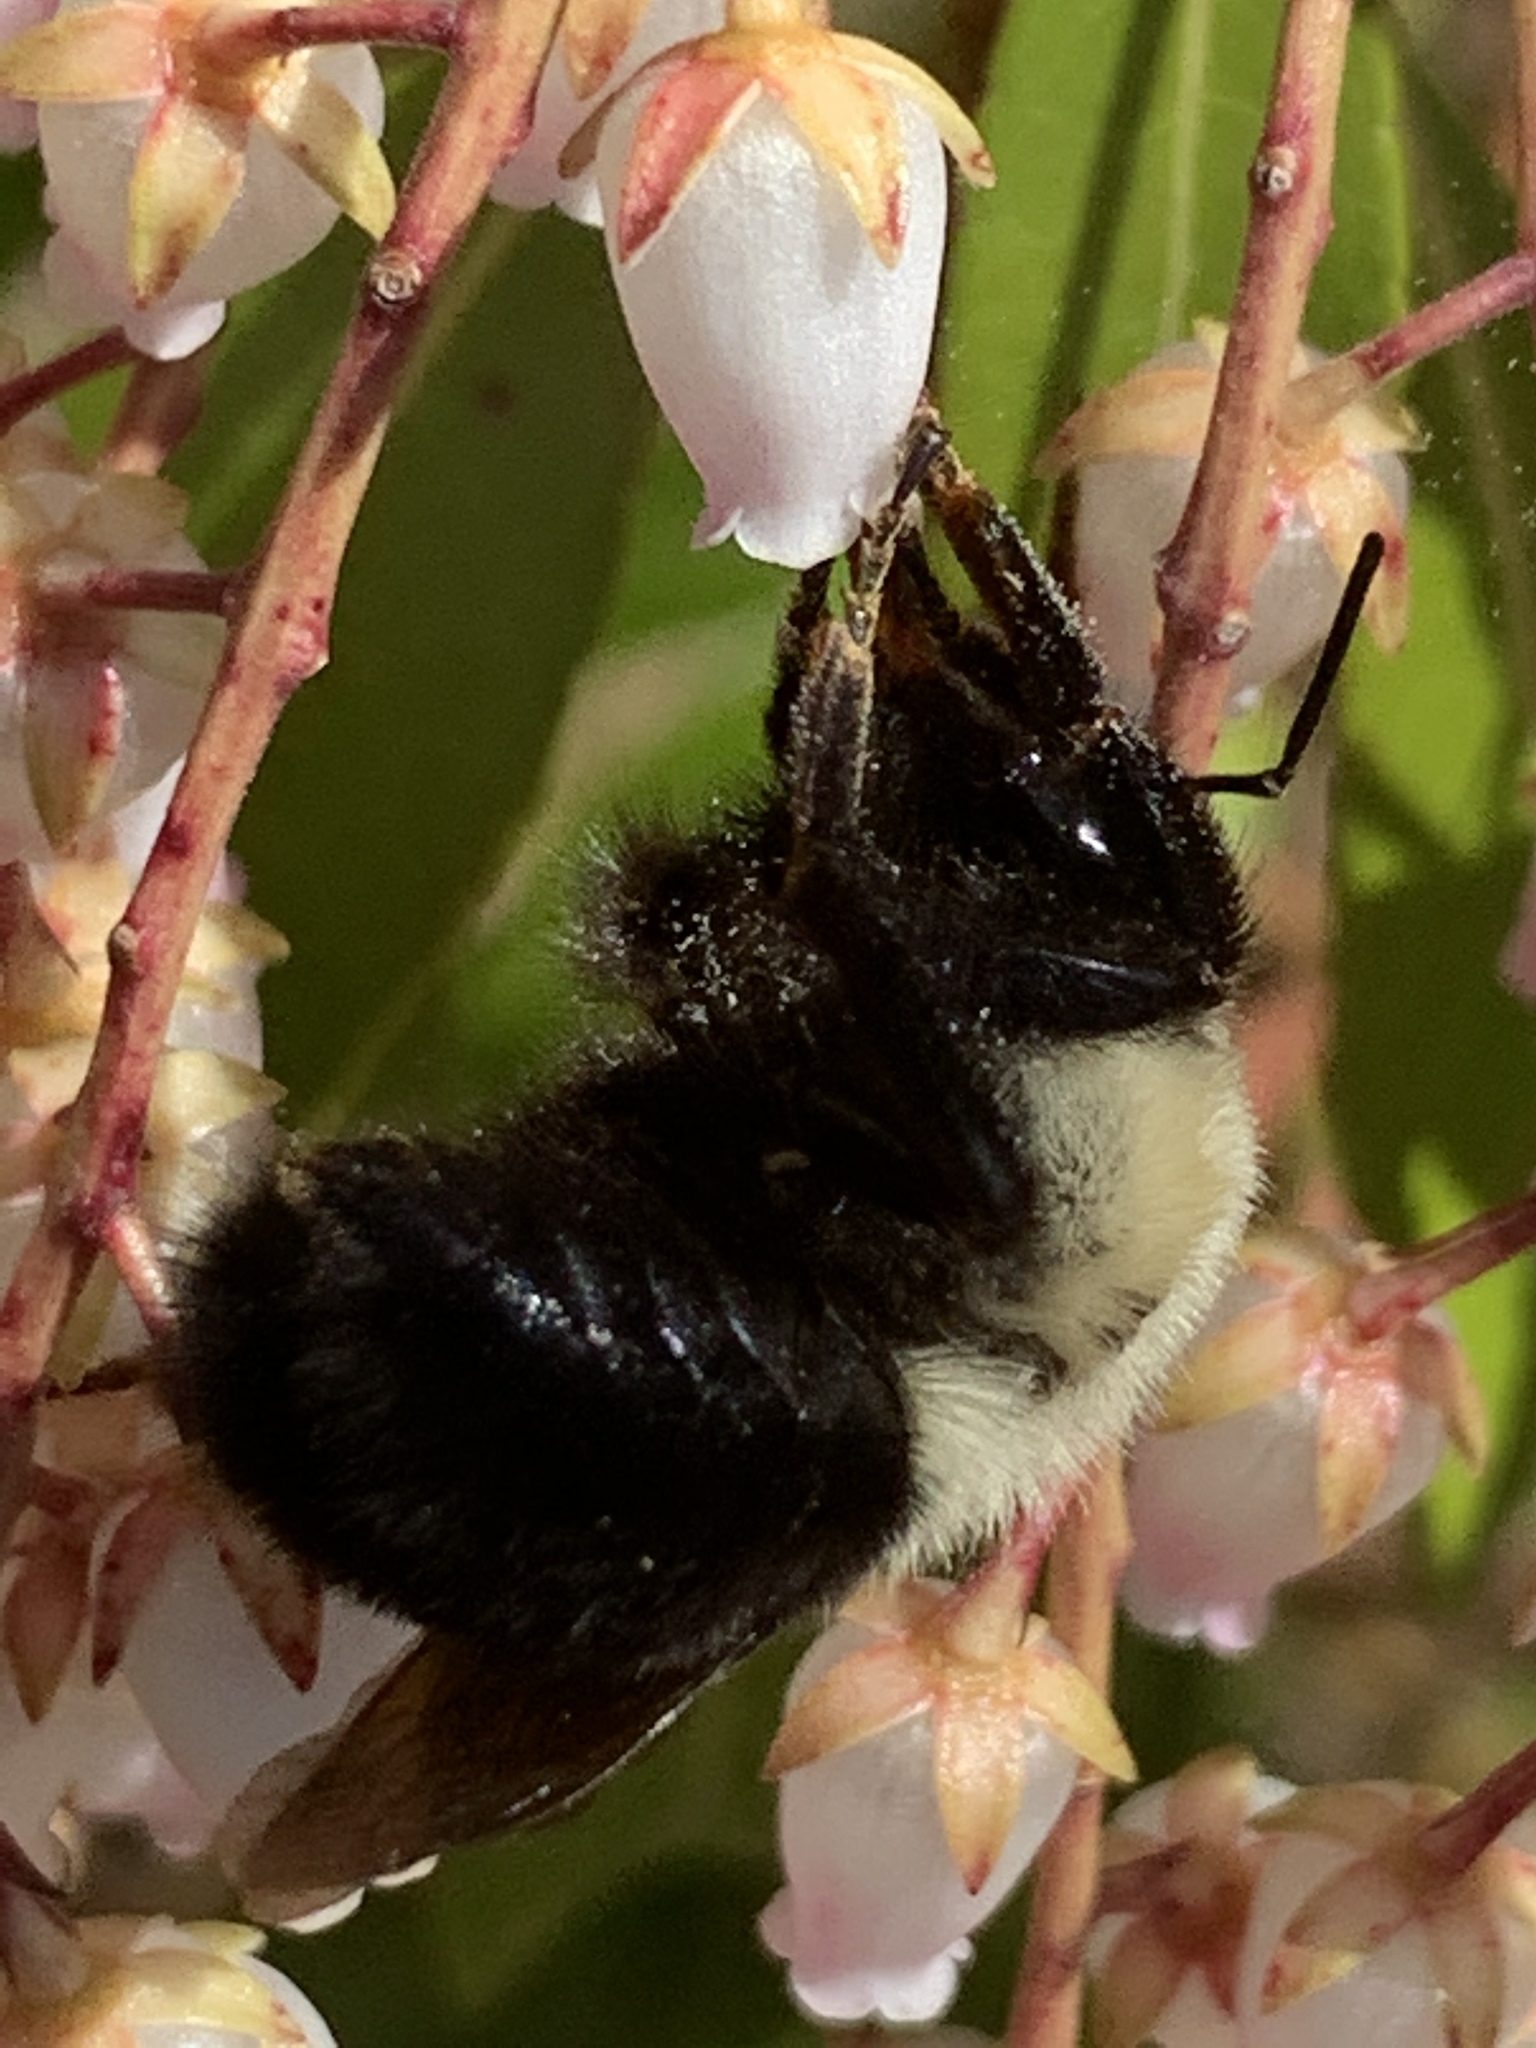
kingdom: Animalia
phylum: Arthropoda
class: Insecta
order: Hymenoptera
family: Apidae
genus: Bombus
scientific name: Bombus impatiens
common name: Common eastern bumble bee
